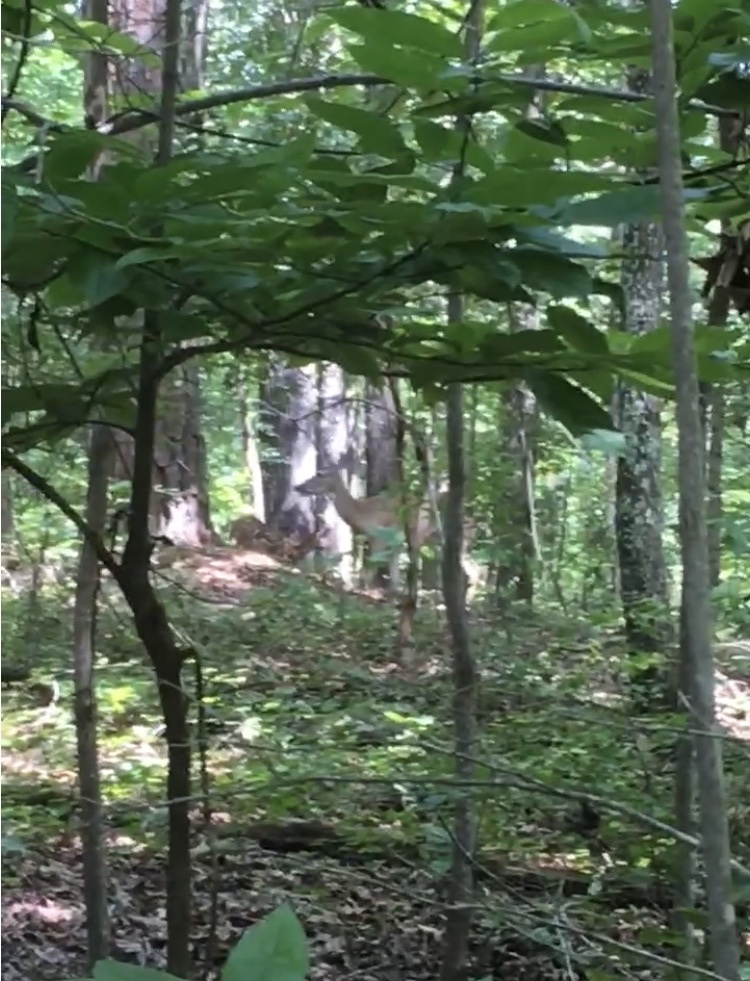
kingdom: Animalia
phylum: Chordata
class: Mammalia
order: Artiodactyla
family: Cervidae
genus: Odocoileus
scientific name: Odocoileus virginianus
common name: White-tailed deer
